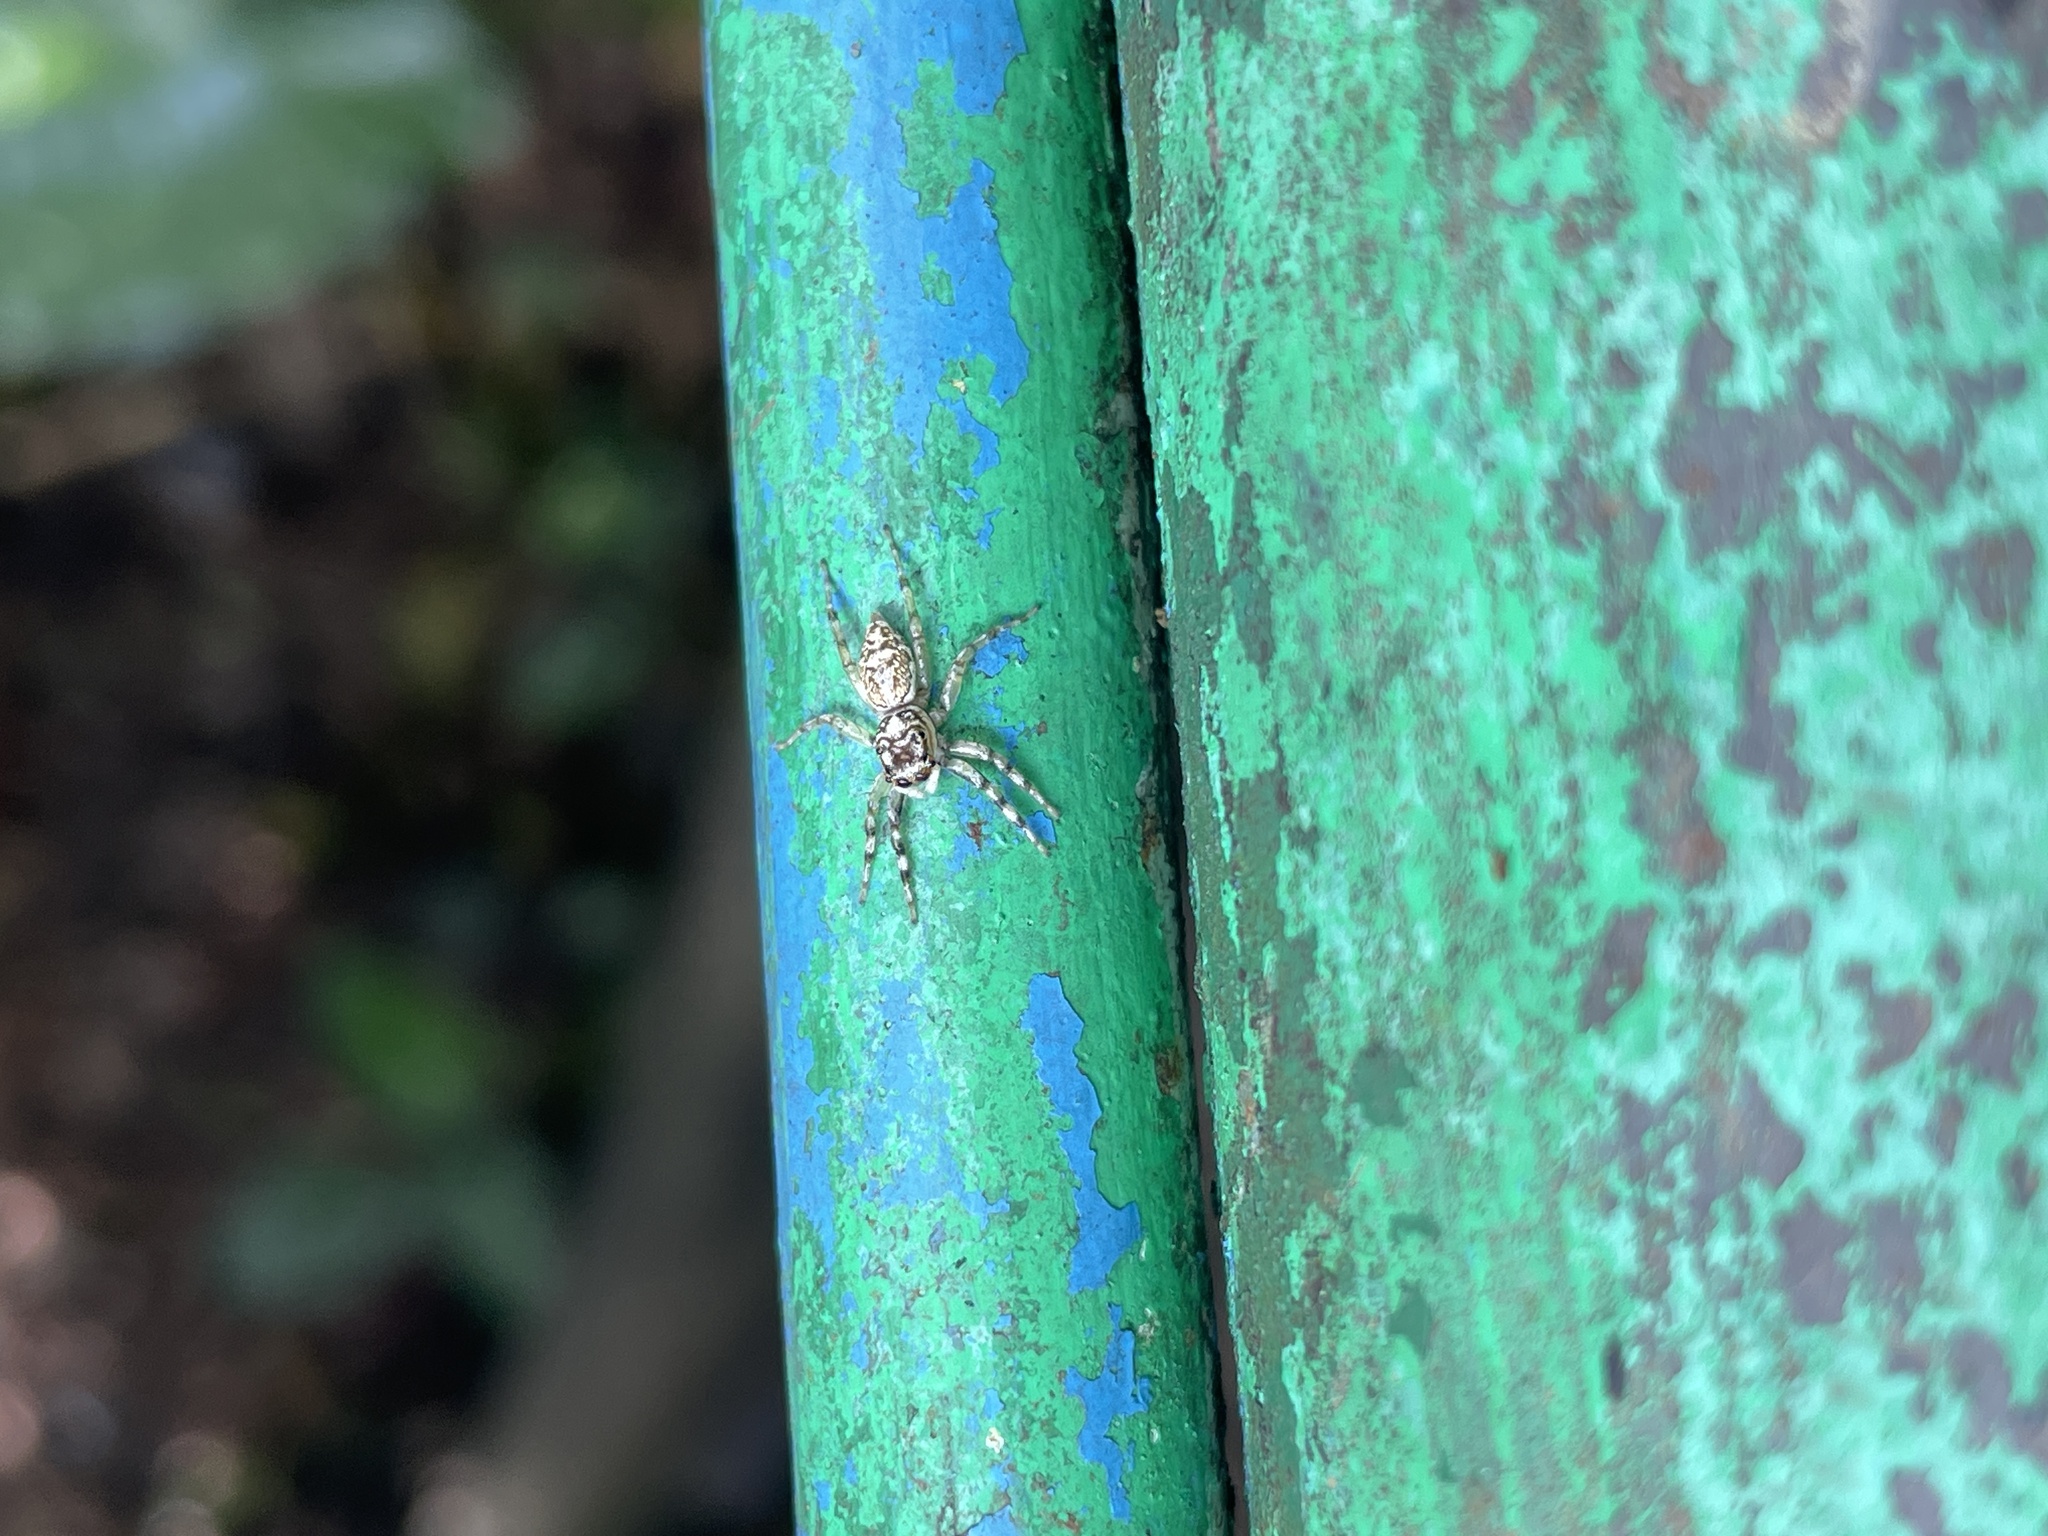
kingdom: Animalia
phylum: Arthropoda
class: Arachnida
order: Araneae
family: Salticidae
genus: Phintelloides
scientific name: Phintelloides versicolor
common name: Jumping spider
